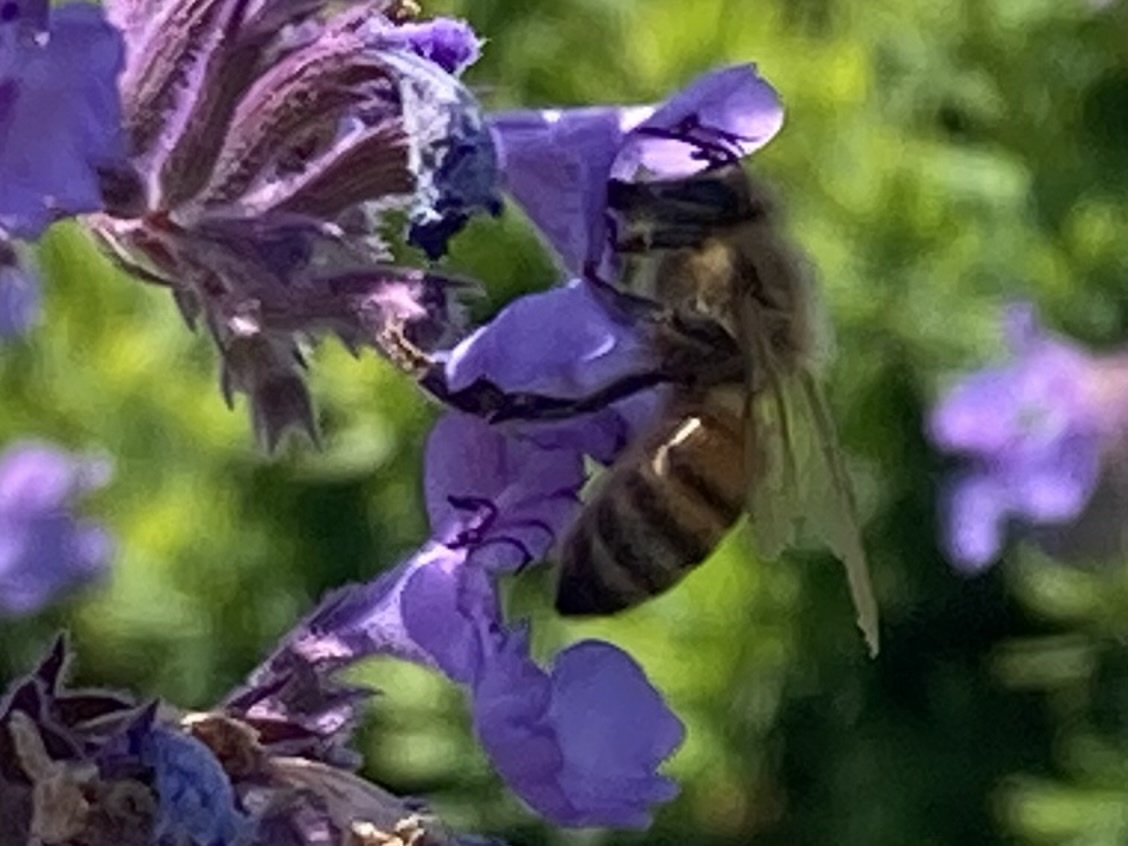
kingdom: Animalia
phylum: Arthropoda
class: Insecta
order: Hymenoptera
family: Apidae
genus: Apis
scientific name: Apis mellifera
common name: Honey bee
